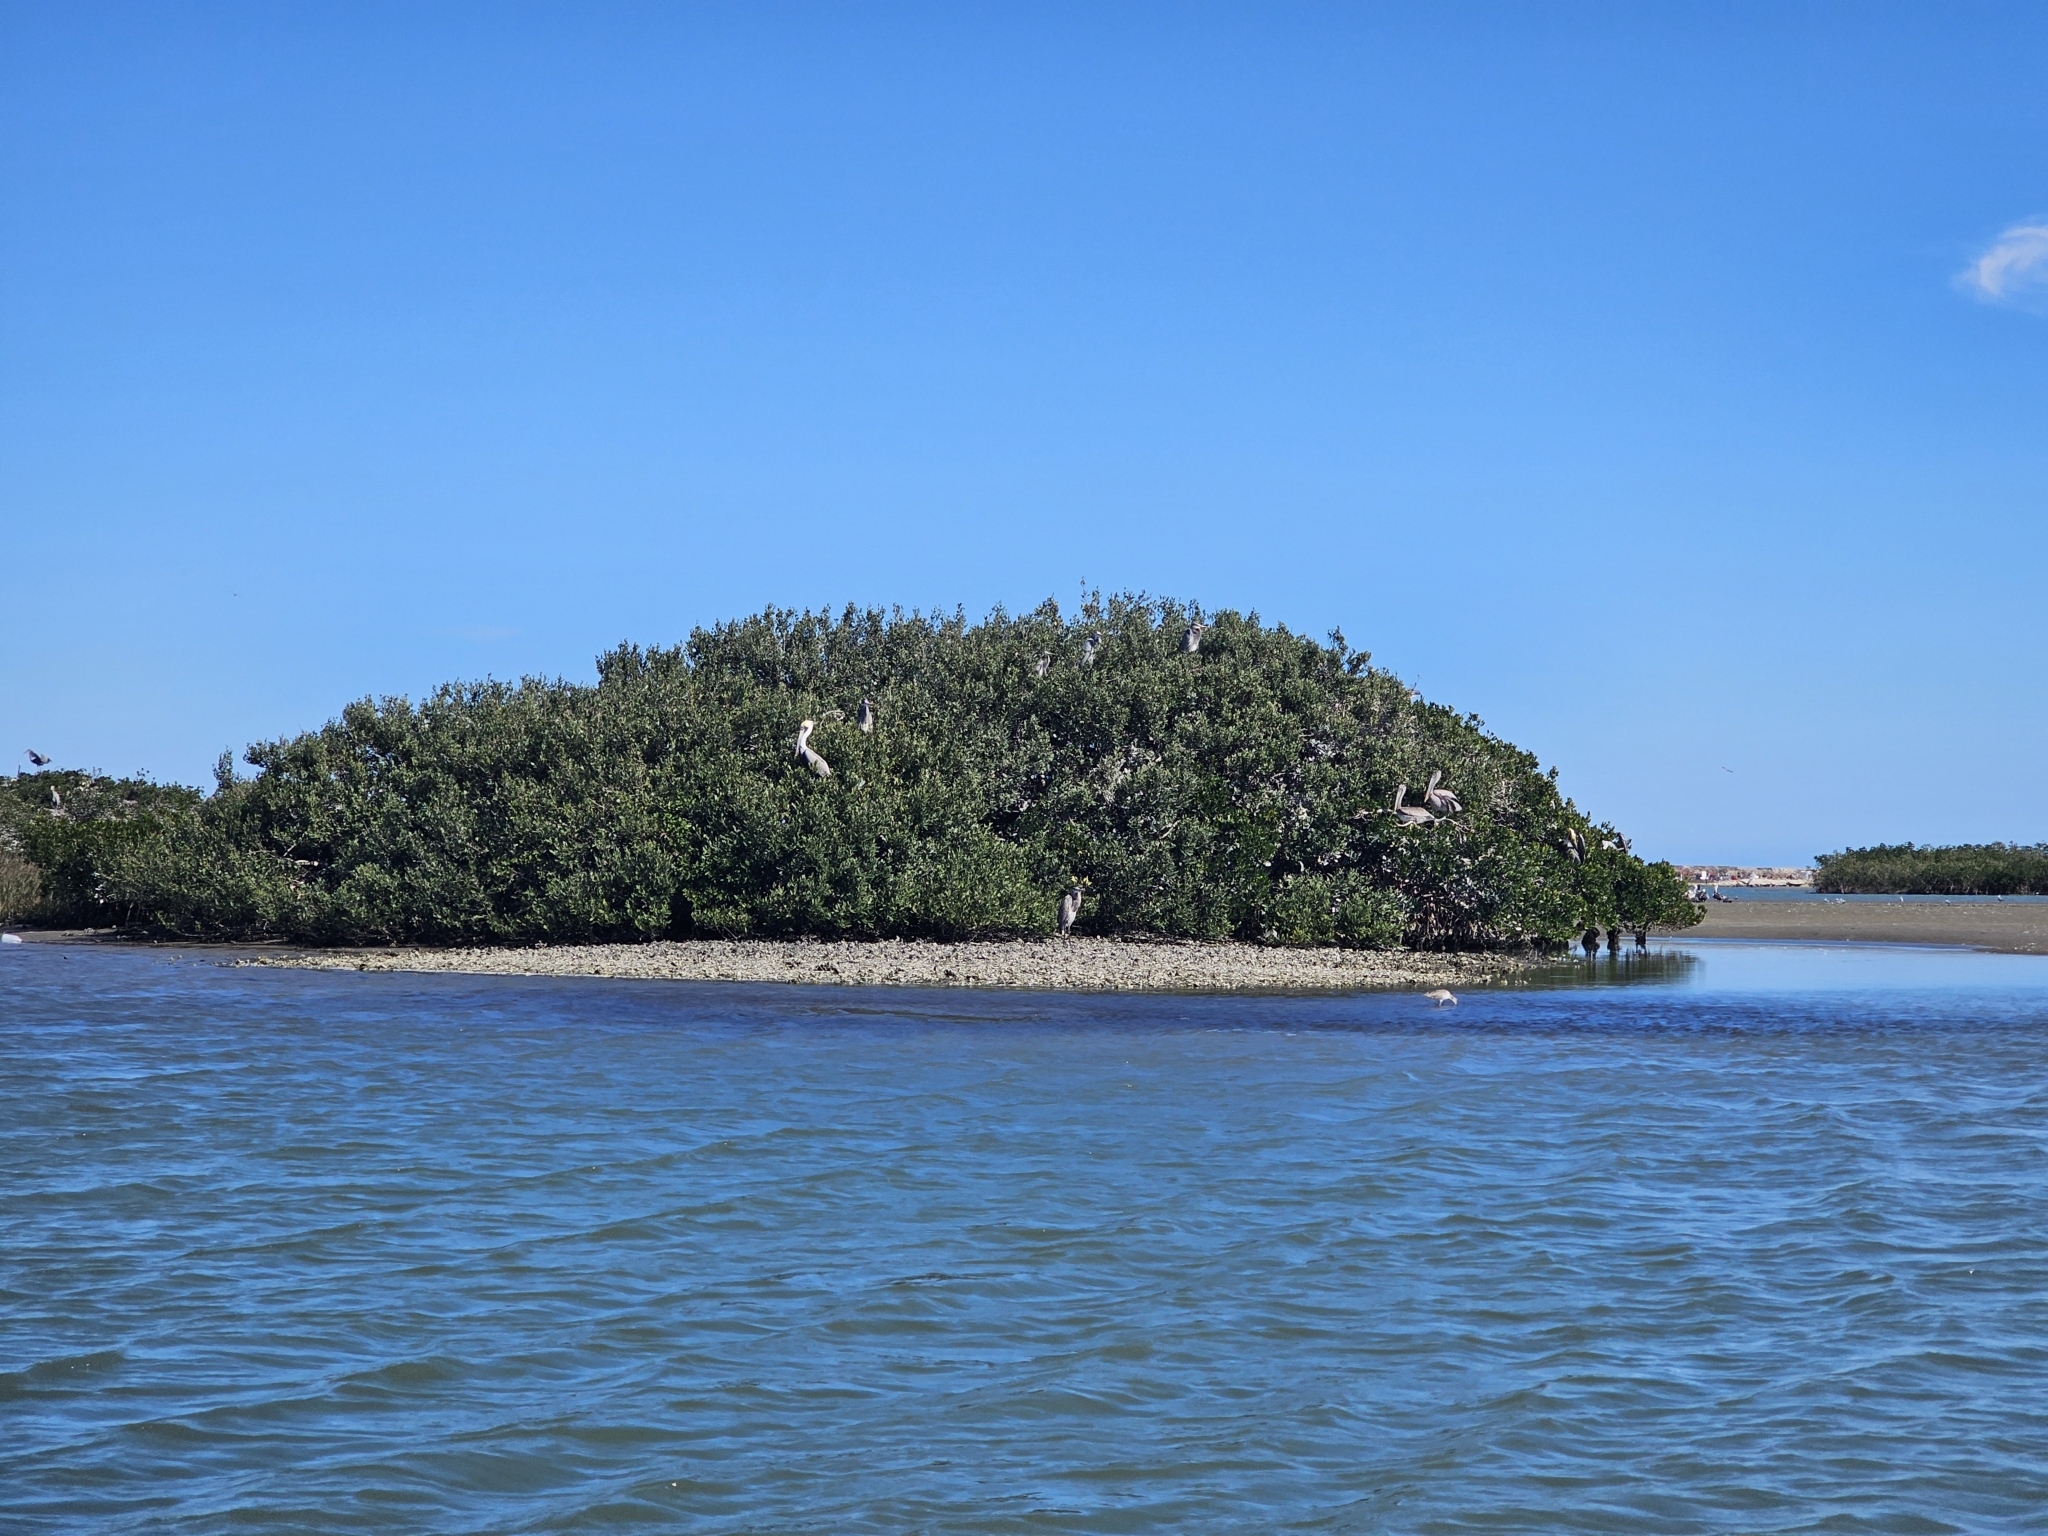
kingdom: Animalia
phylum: Chordata
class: Aves
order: Pelecaniformes
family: Pelecanidae
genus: Pelecanus
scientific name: Pelecanus occidentalis
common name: Brown pelican
